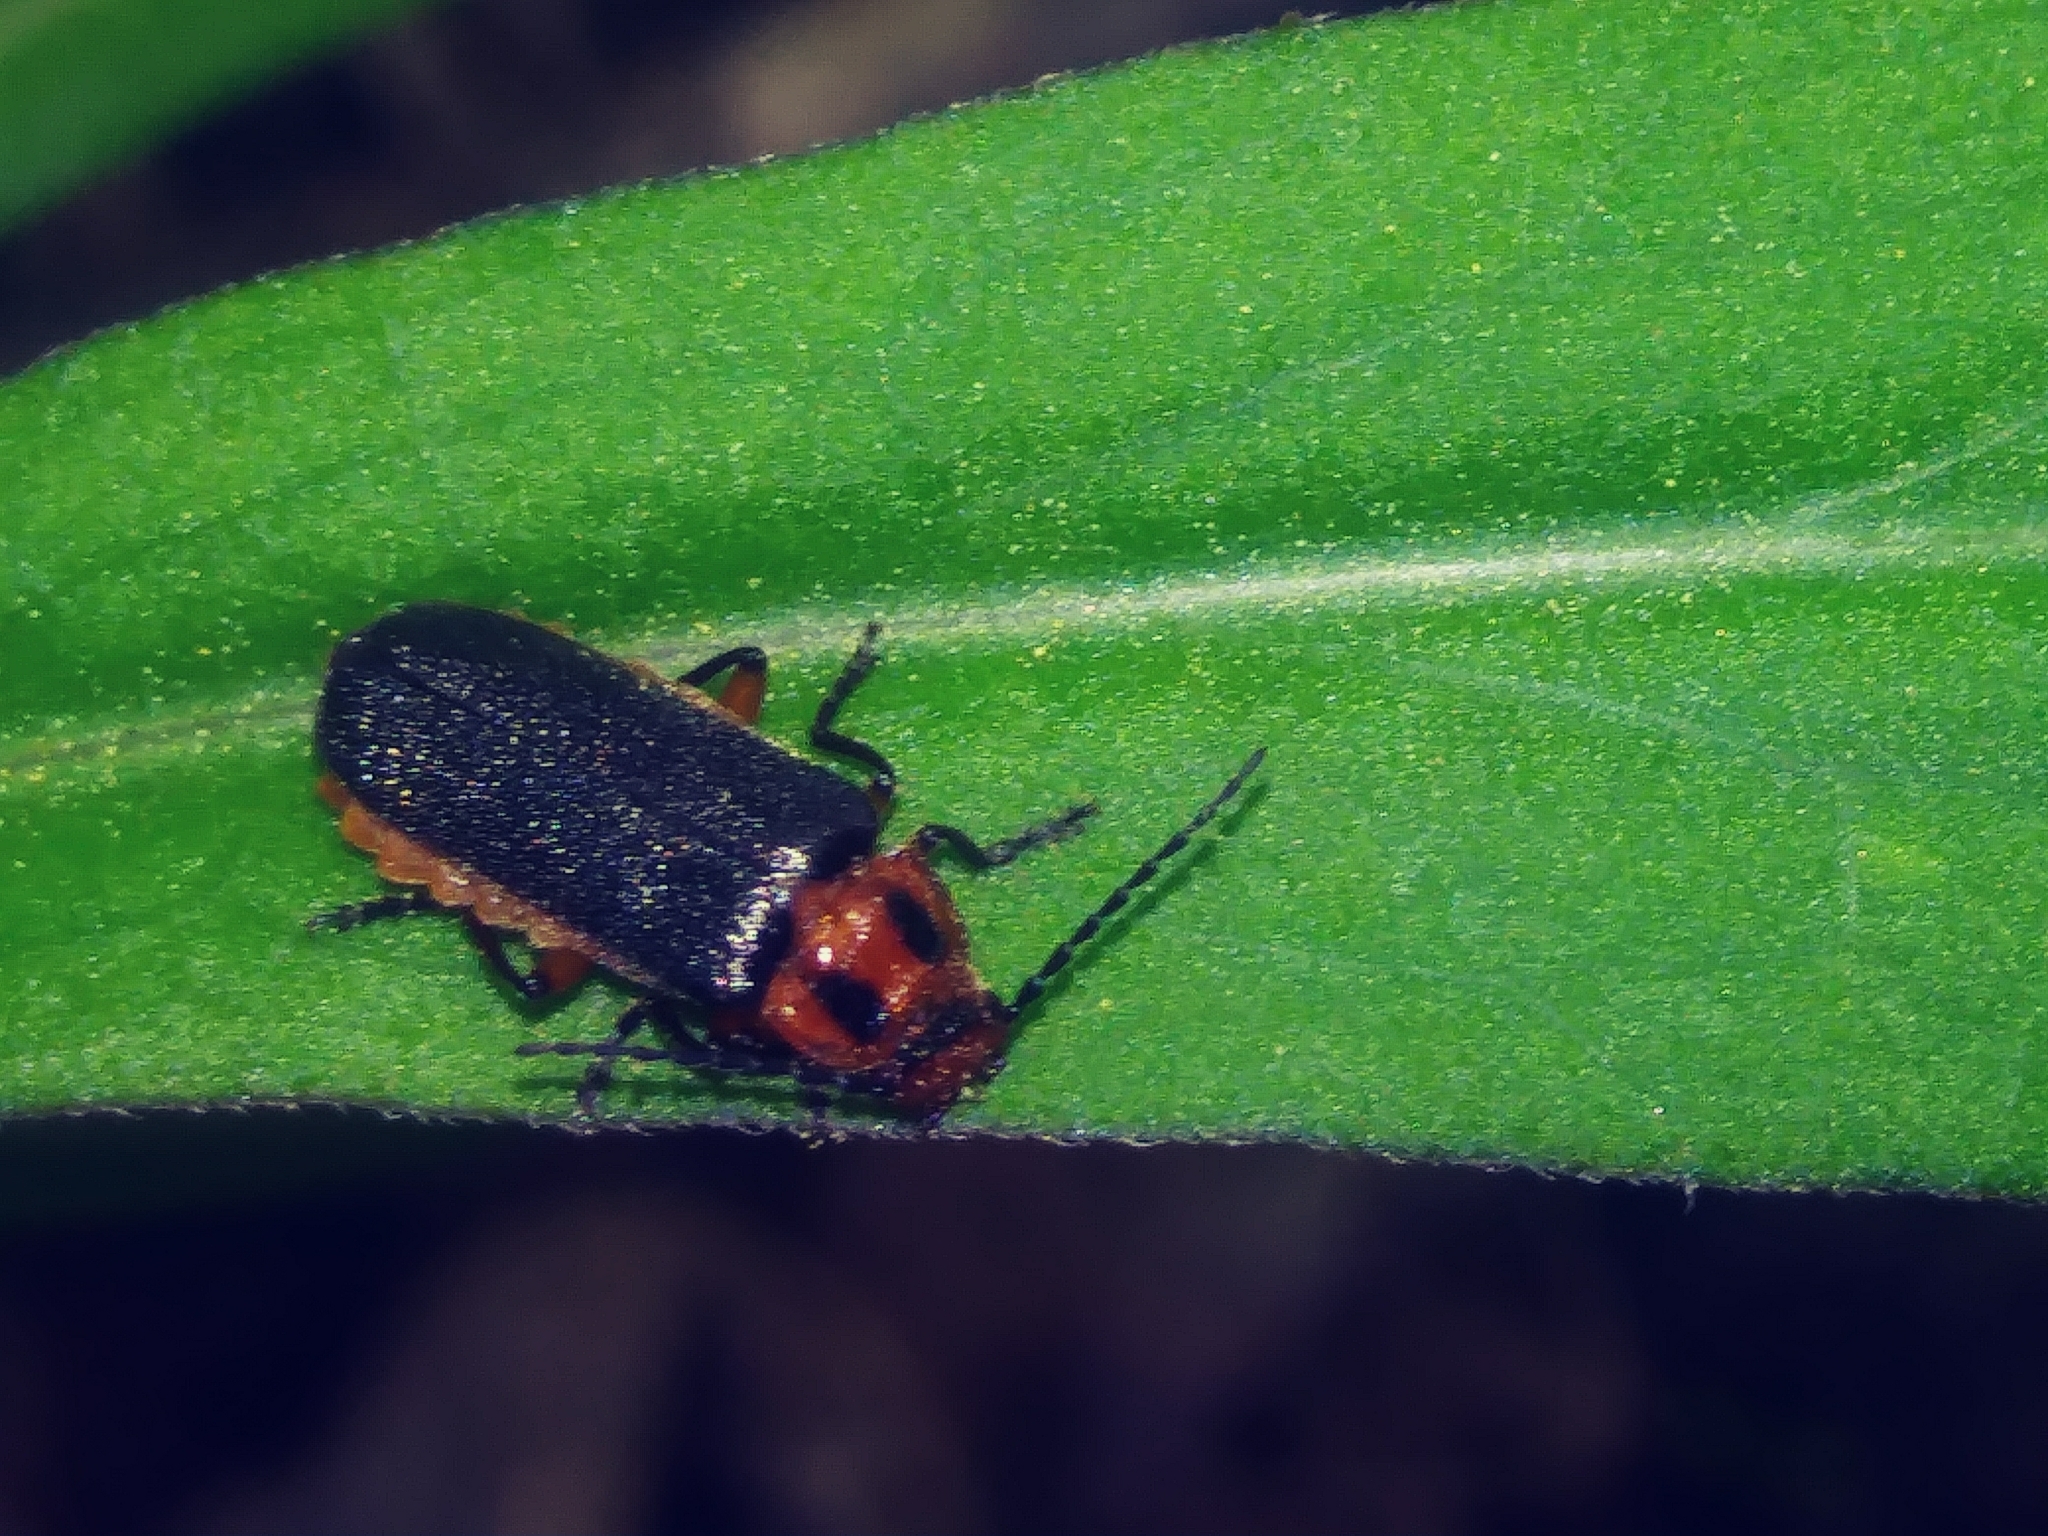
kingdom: Animalia
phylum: Arthropoda
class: Insecta
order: Coleoptera
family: Cantharidae
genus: Atalantycha
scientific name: Atalantycha bilineata
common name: Two-lined leatherwing
